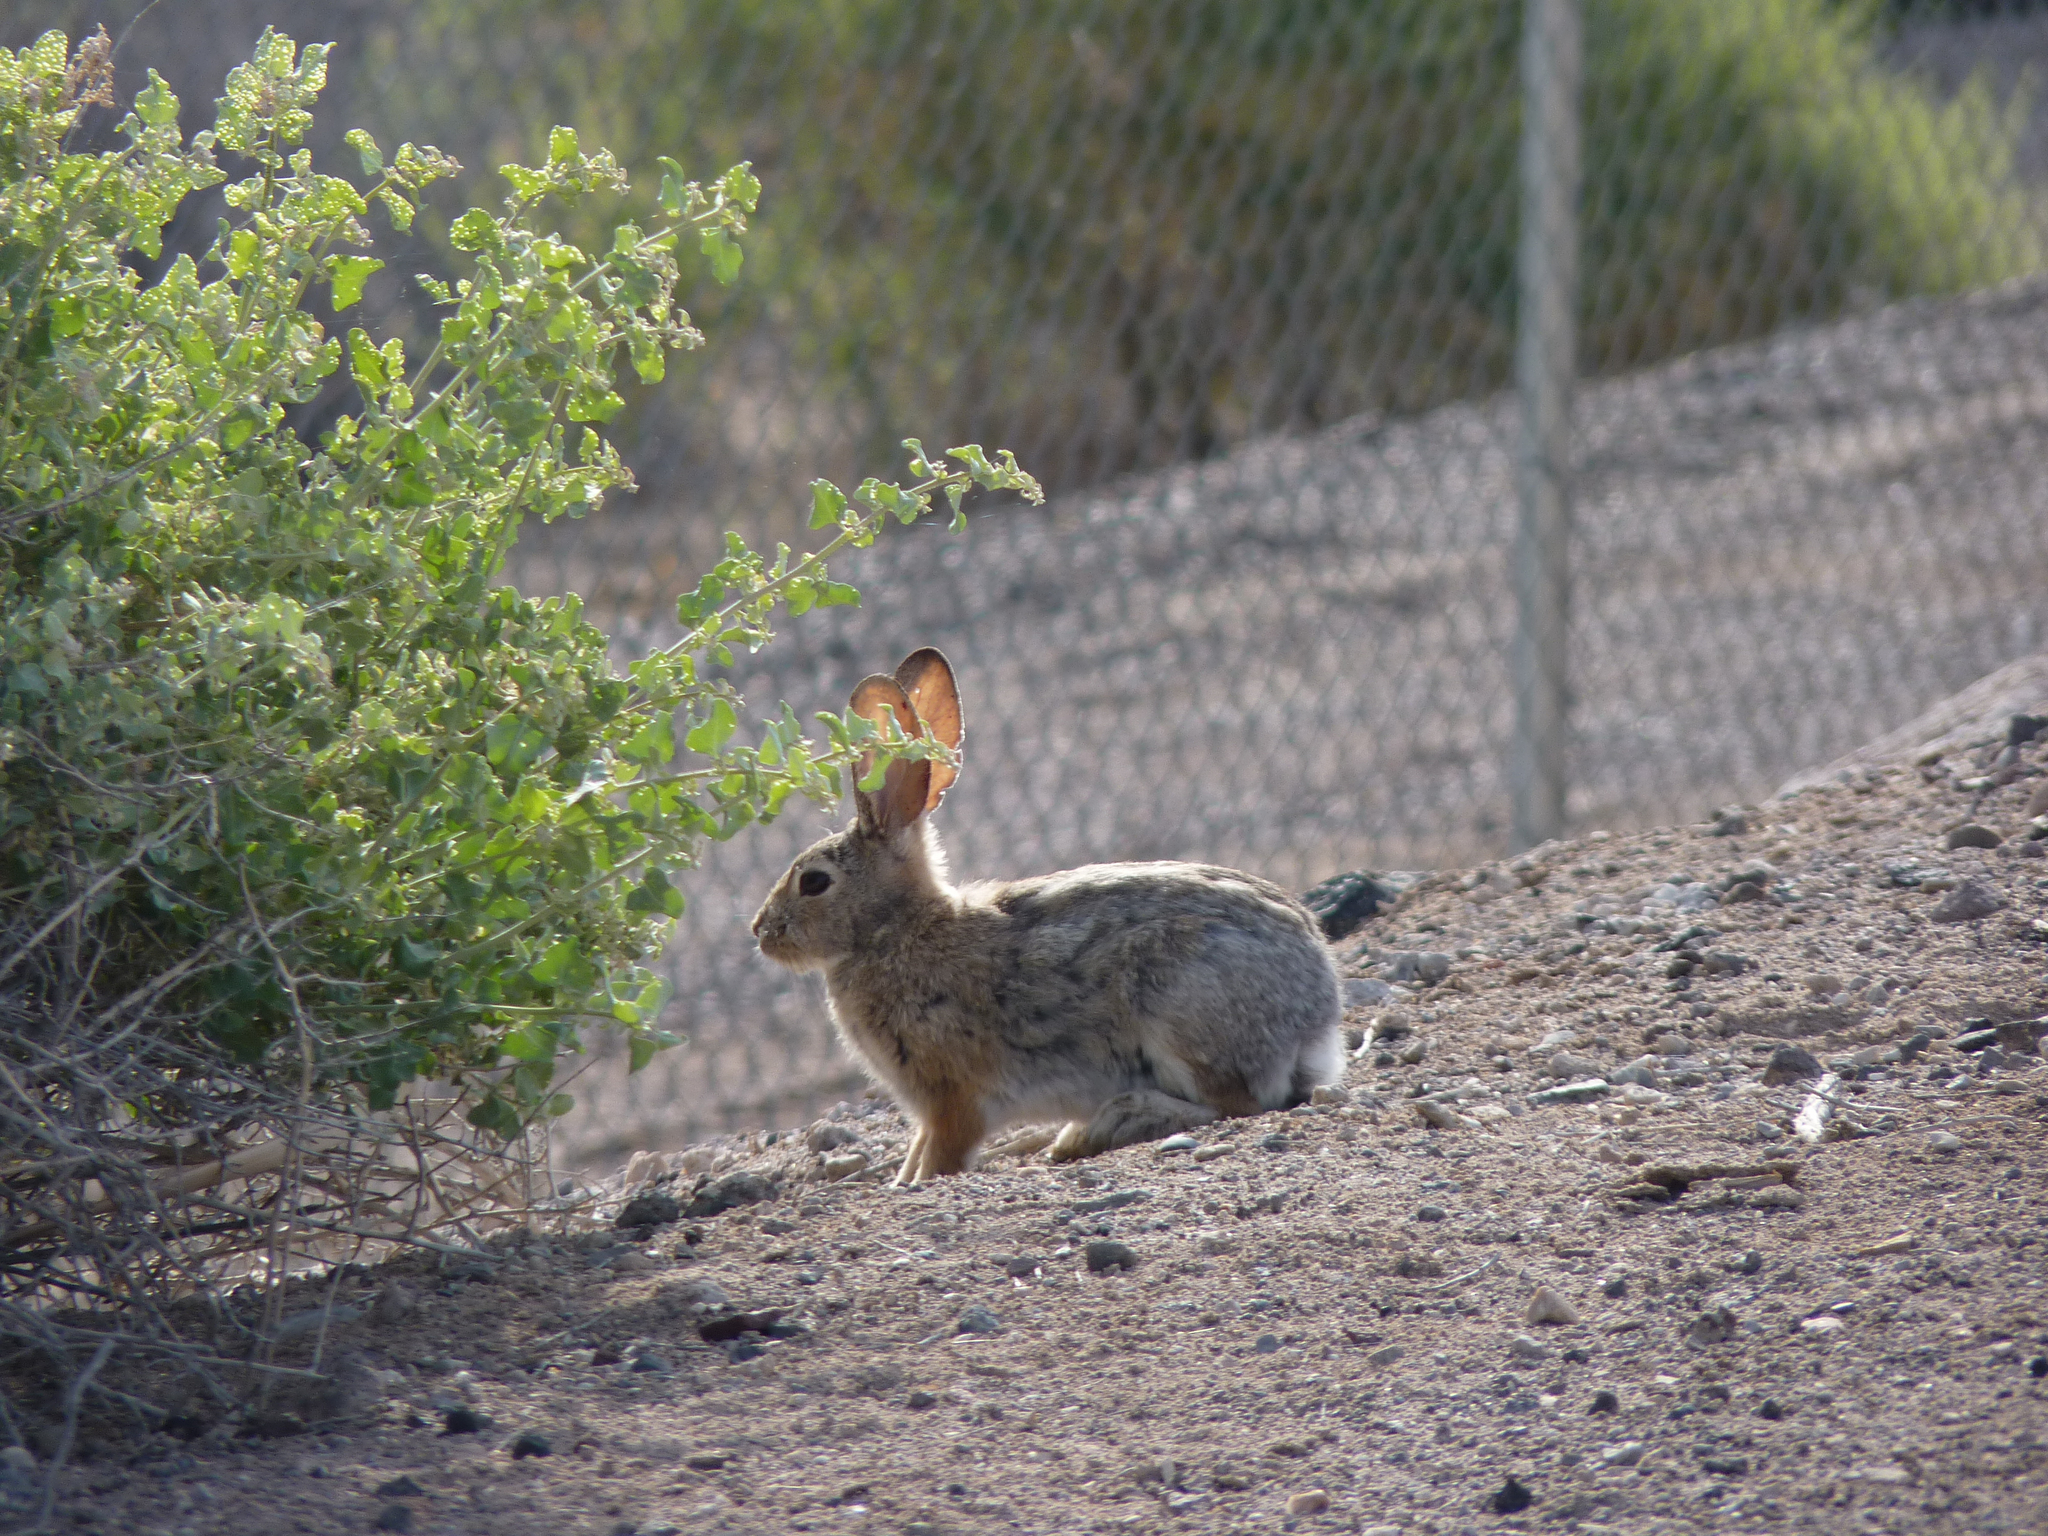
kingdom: Animalia
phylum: Chordata
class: Mammalia
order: Lagomorpha
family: Leporidae
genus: Sylvilagus
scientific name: Sylvilagus audubonii
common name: Desert cottontail
